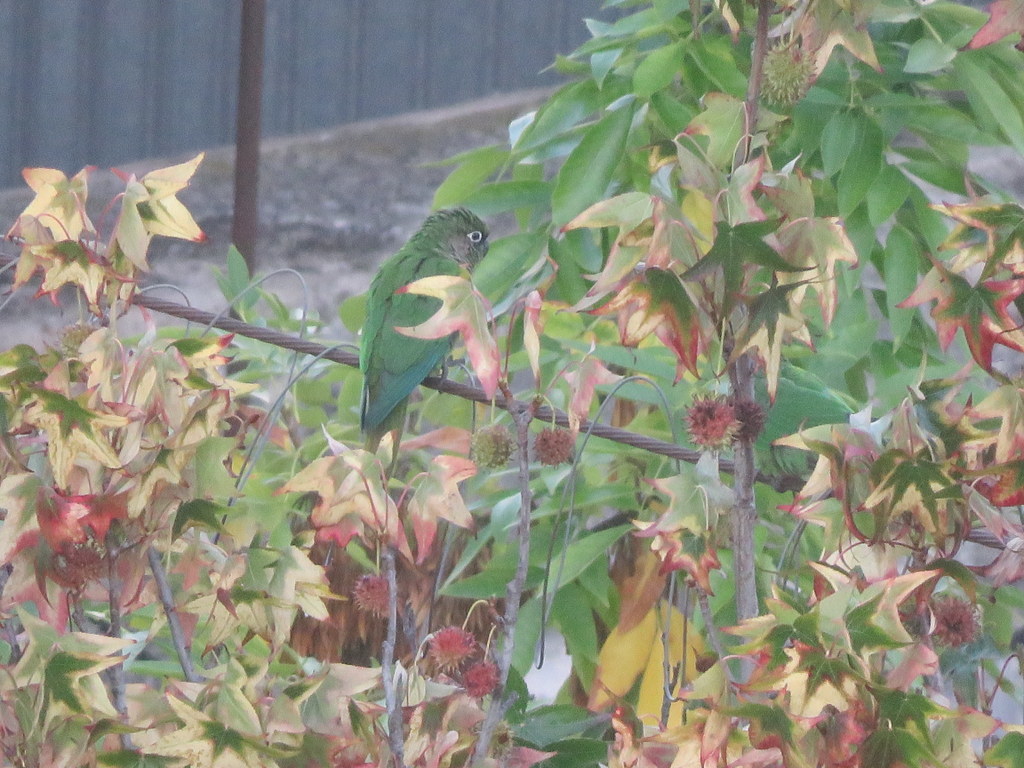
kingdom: Animalia
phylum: Chordata
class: Aves
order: Psittaciformes
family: Psittacidae
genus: Pyrrhura
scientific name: Pyrrhura frontalis
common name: Maroon-bellied parakeet
